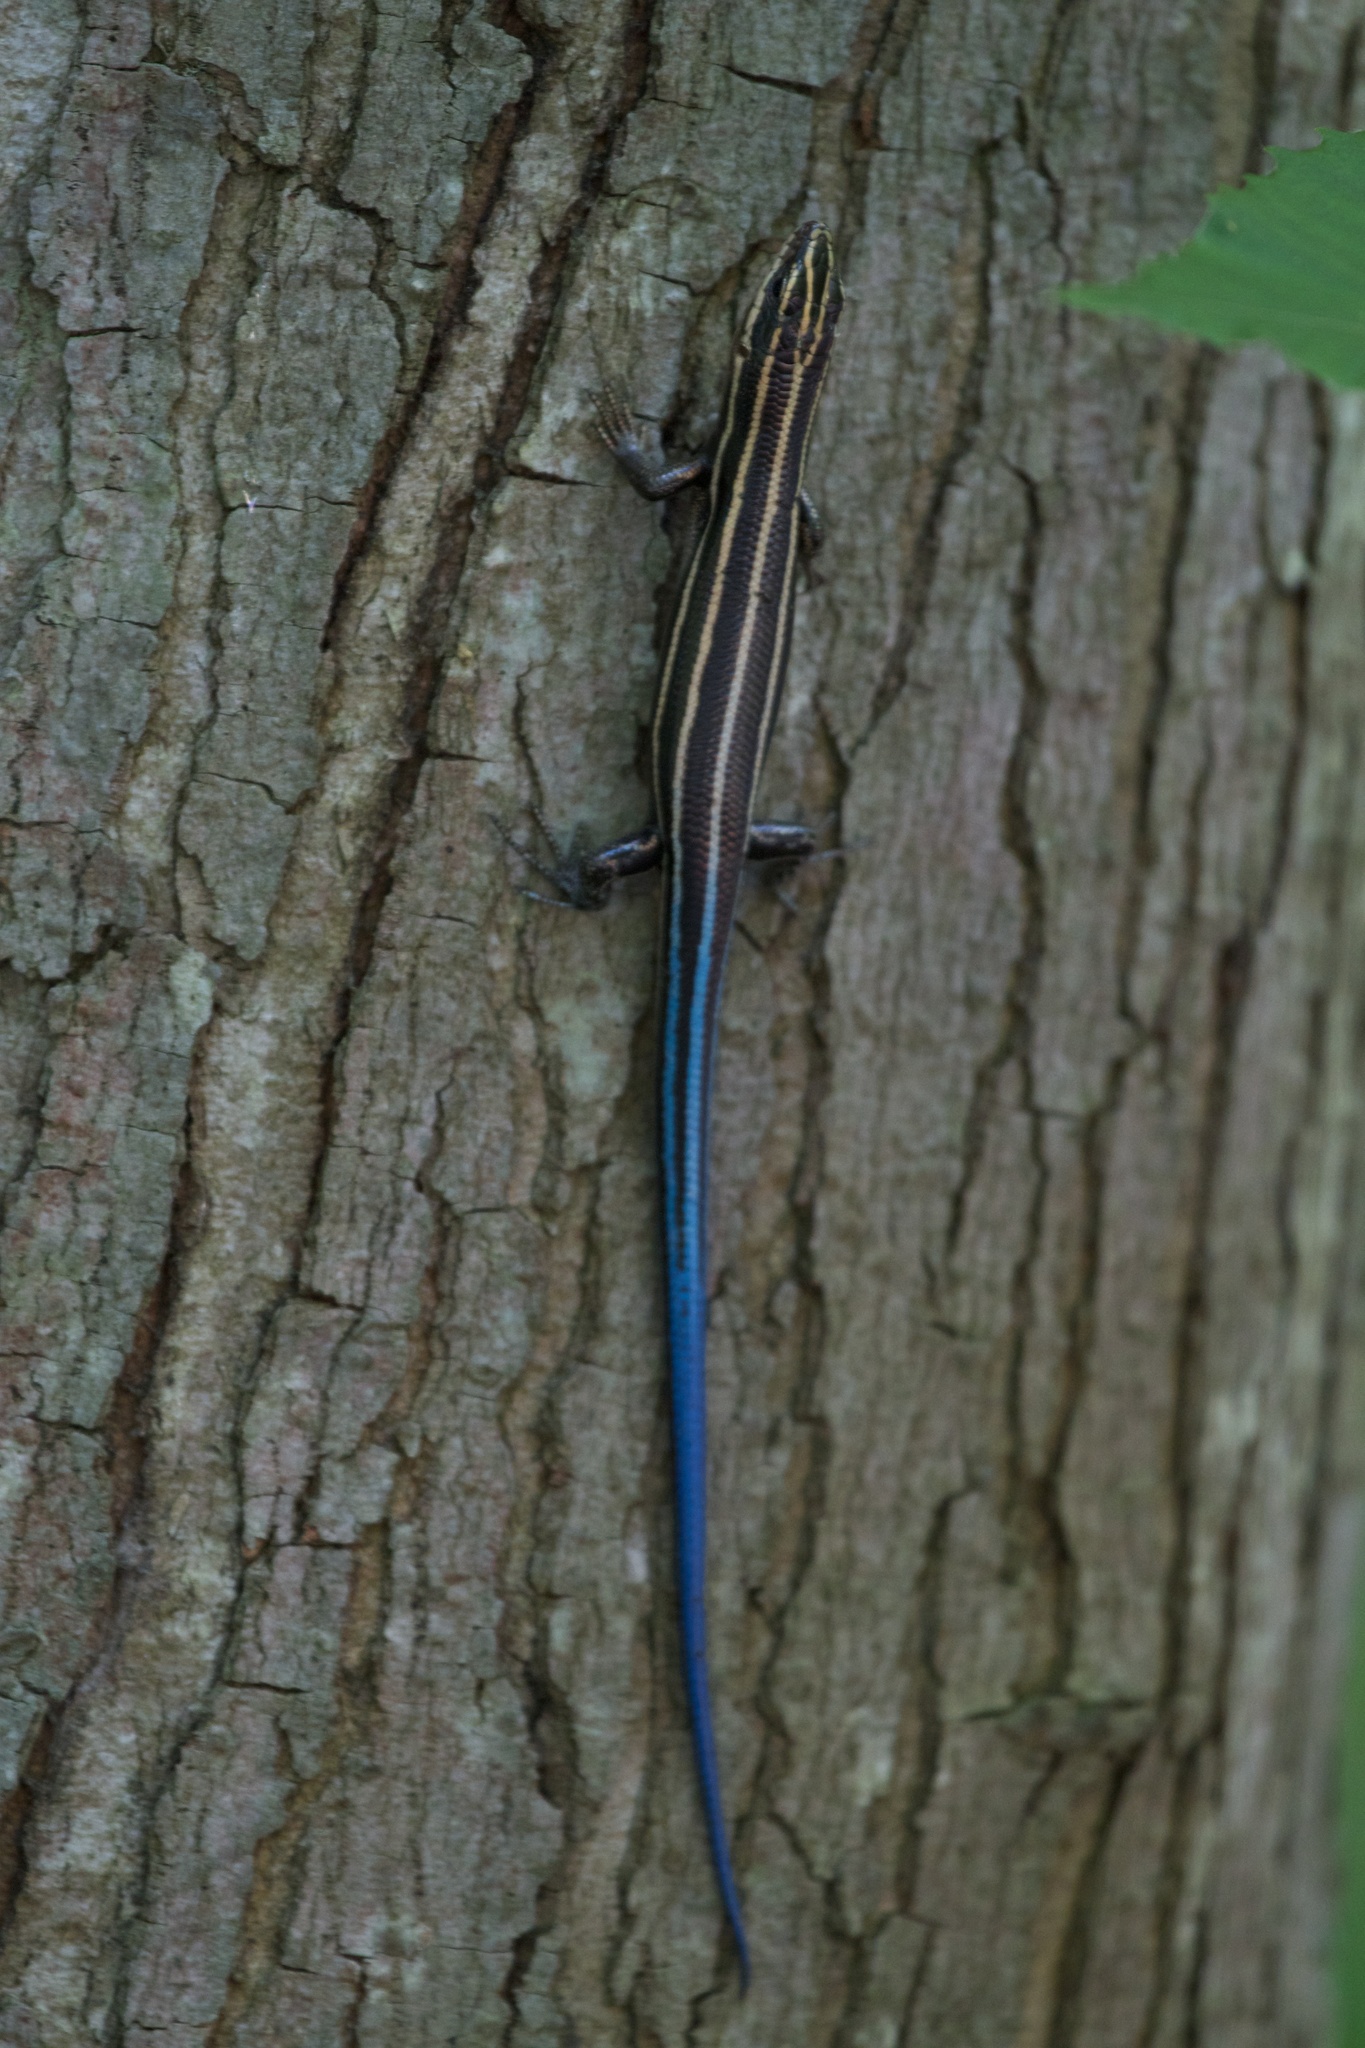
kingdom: Animalia
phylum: Chordata
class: Squamata
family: Scincidae
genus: Plestiodon
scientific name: Plestiodon fasciatus
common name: Five-lined skink
